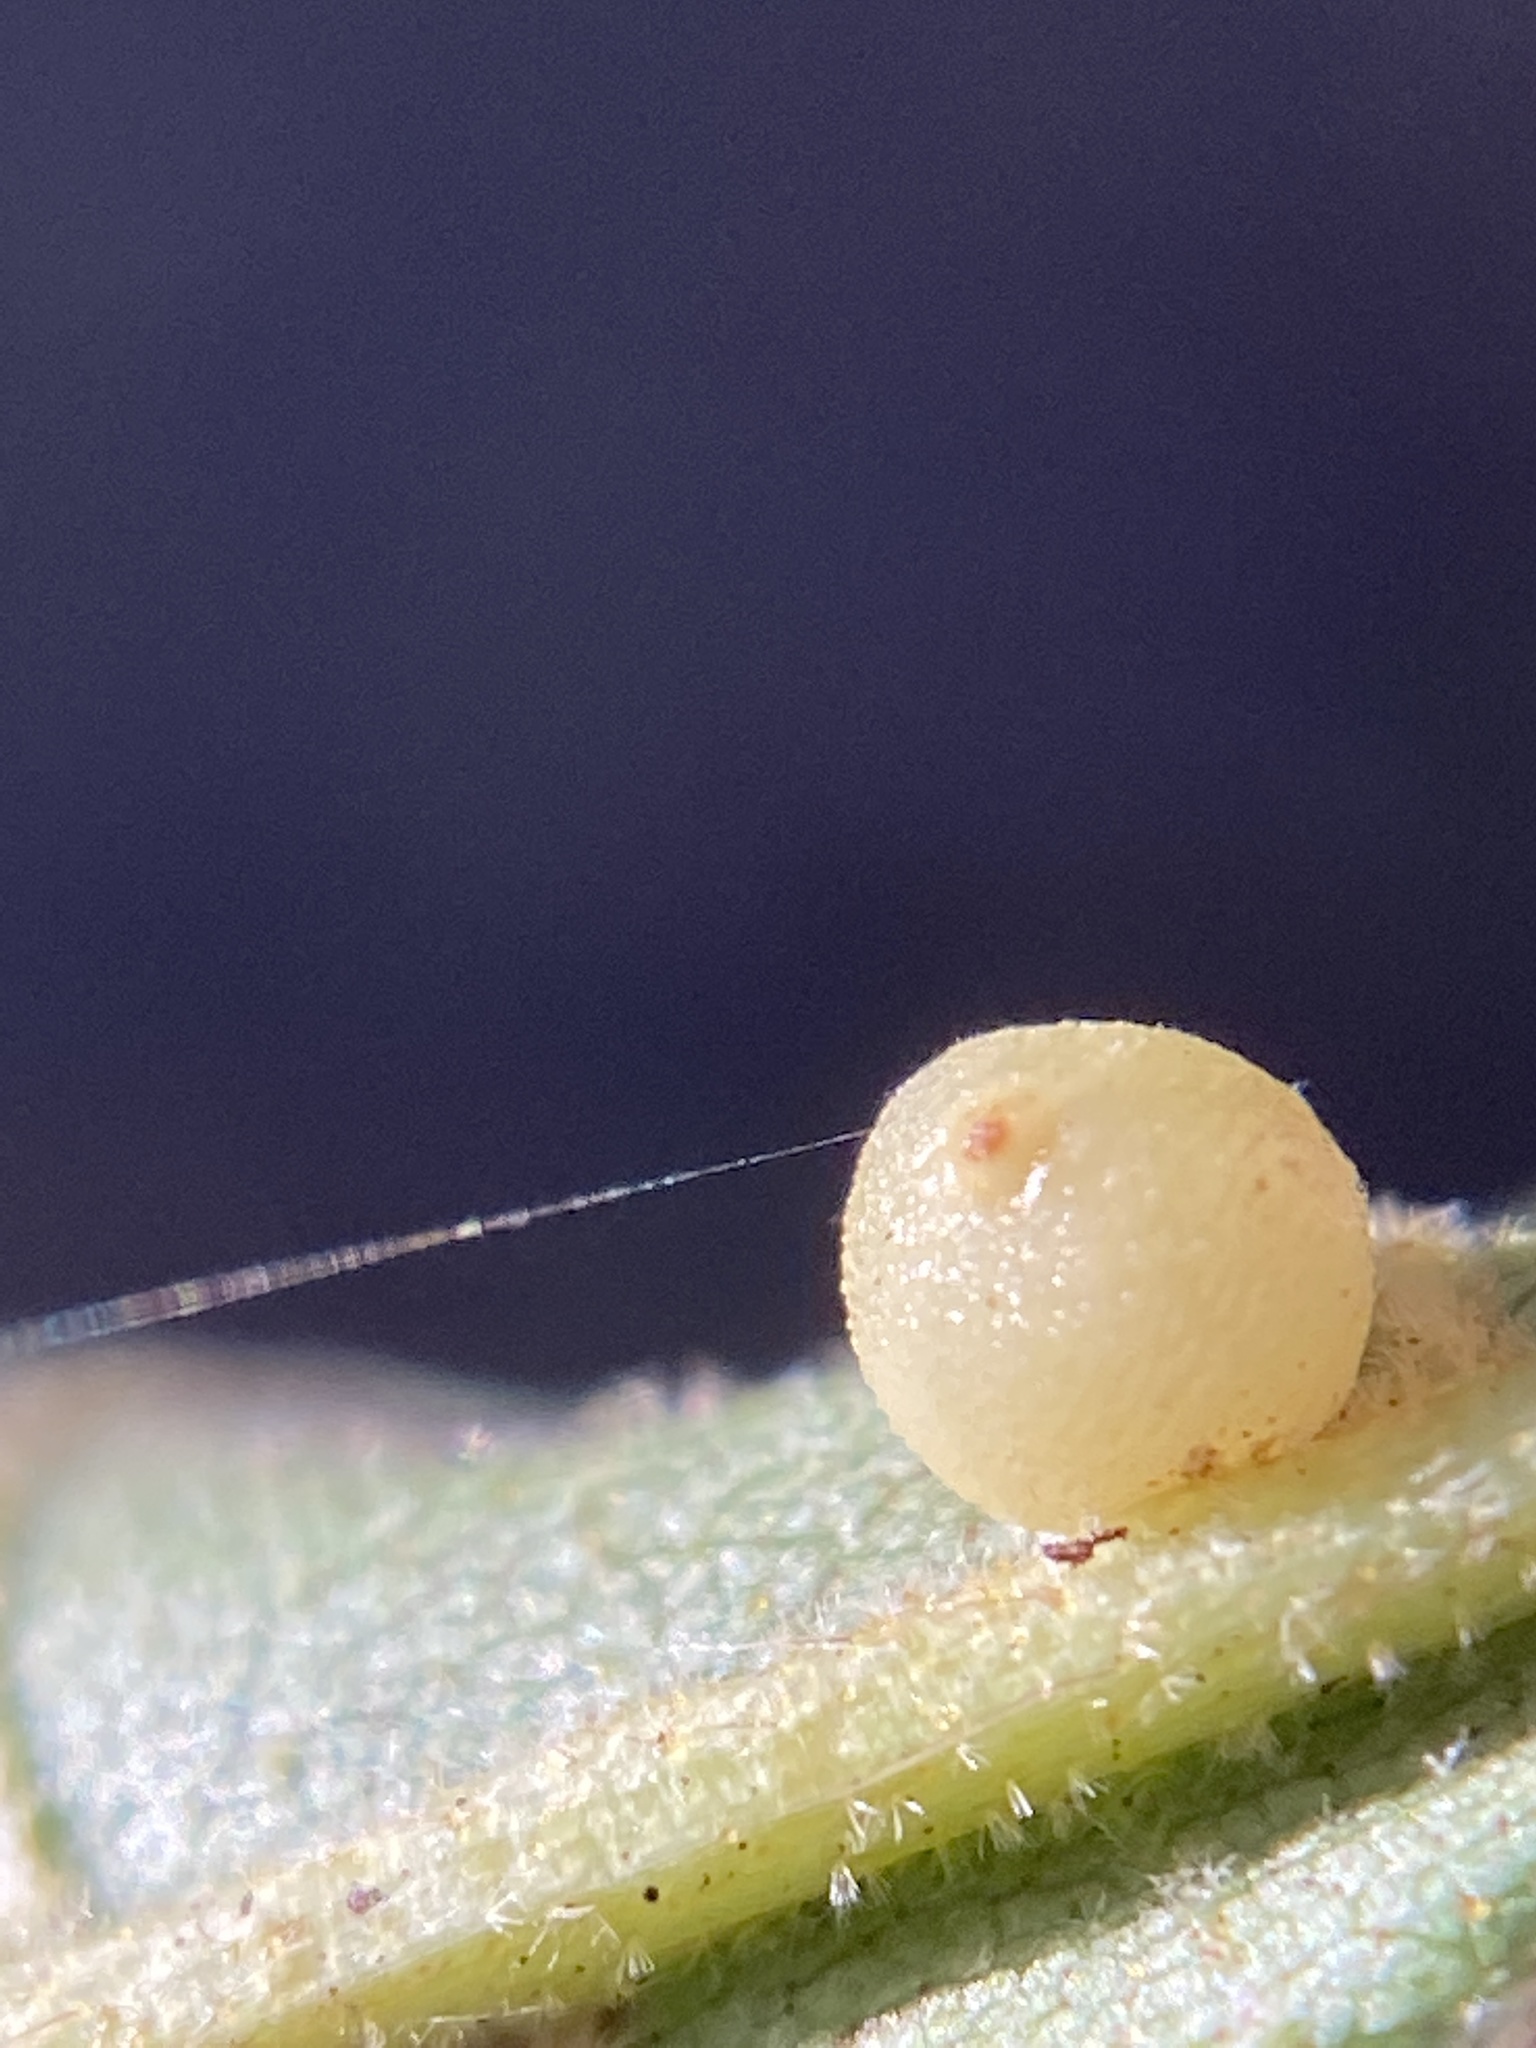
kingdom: Animalia
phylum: Arthropoda
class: Insecta
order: Diptera
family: Cecidomyiidae
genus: Caryomyia
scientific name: Caryomyia caryae
